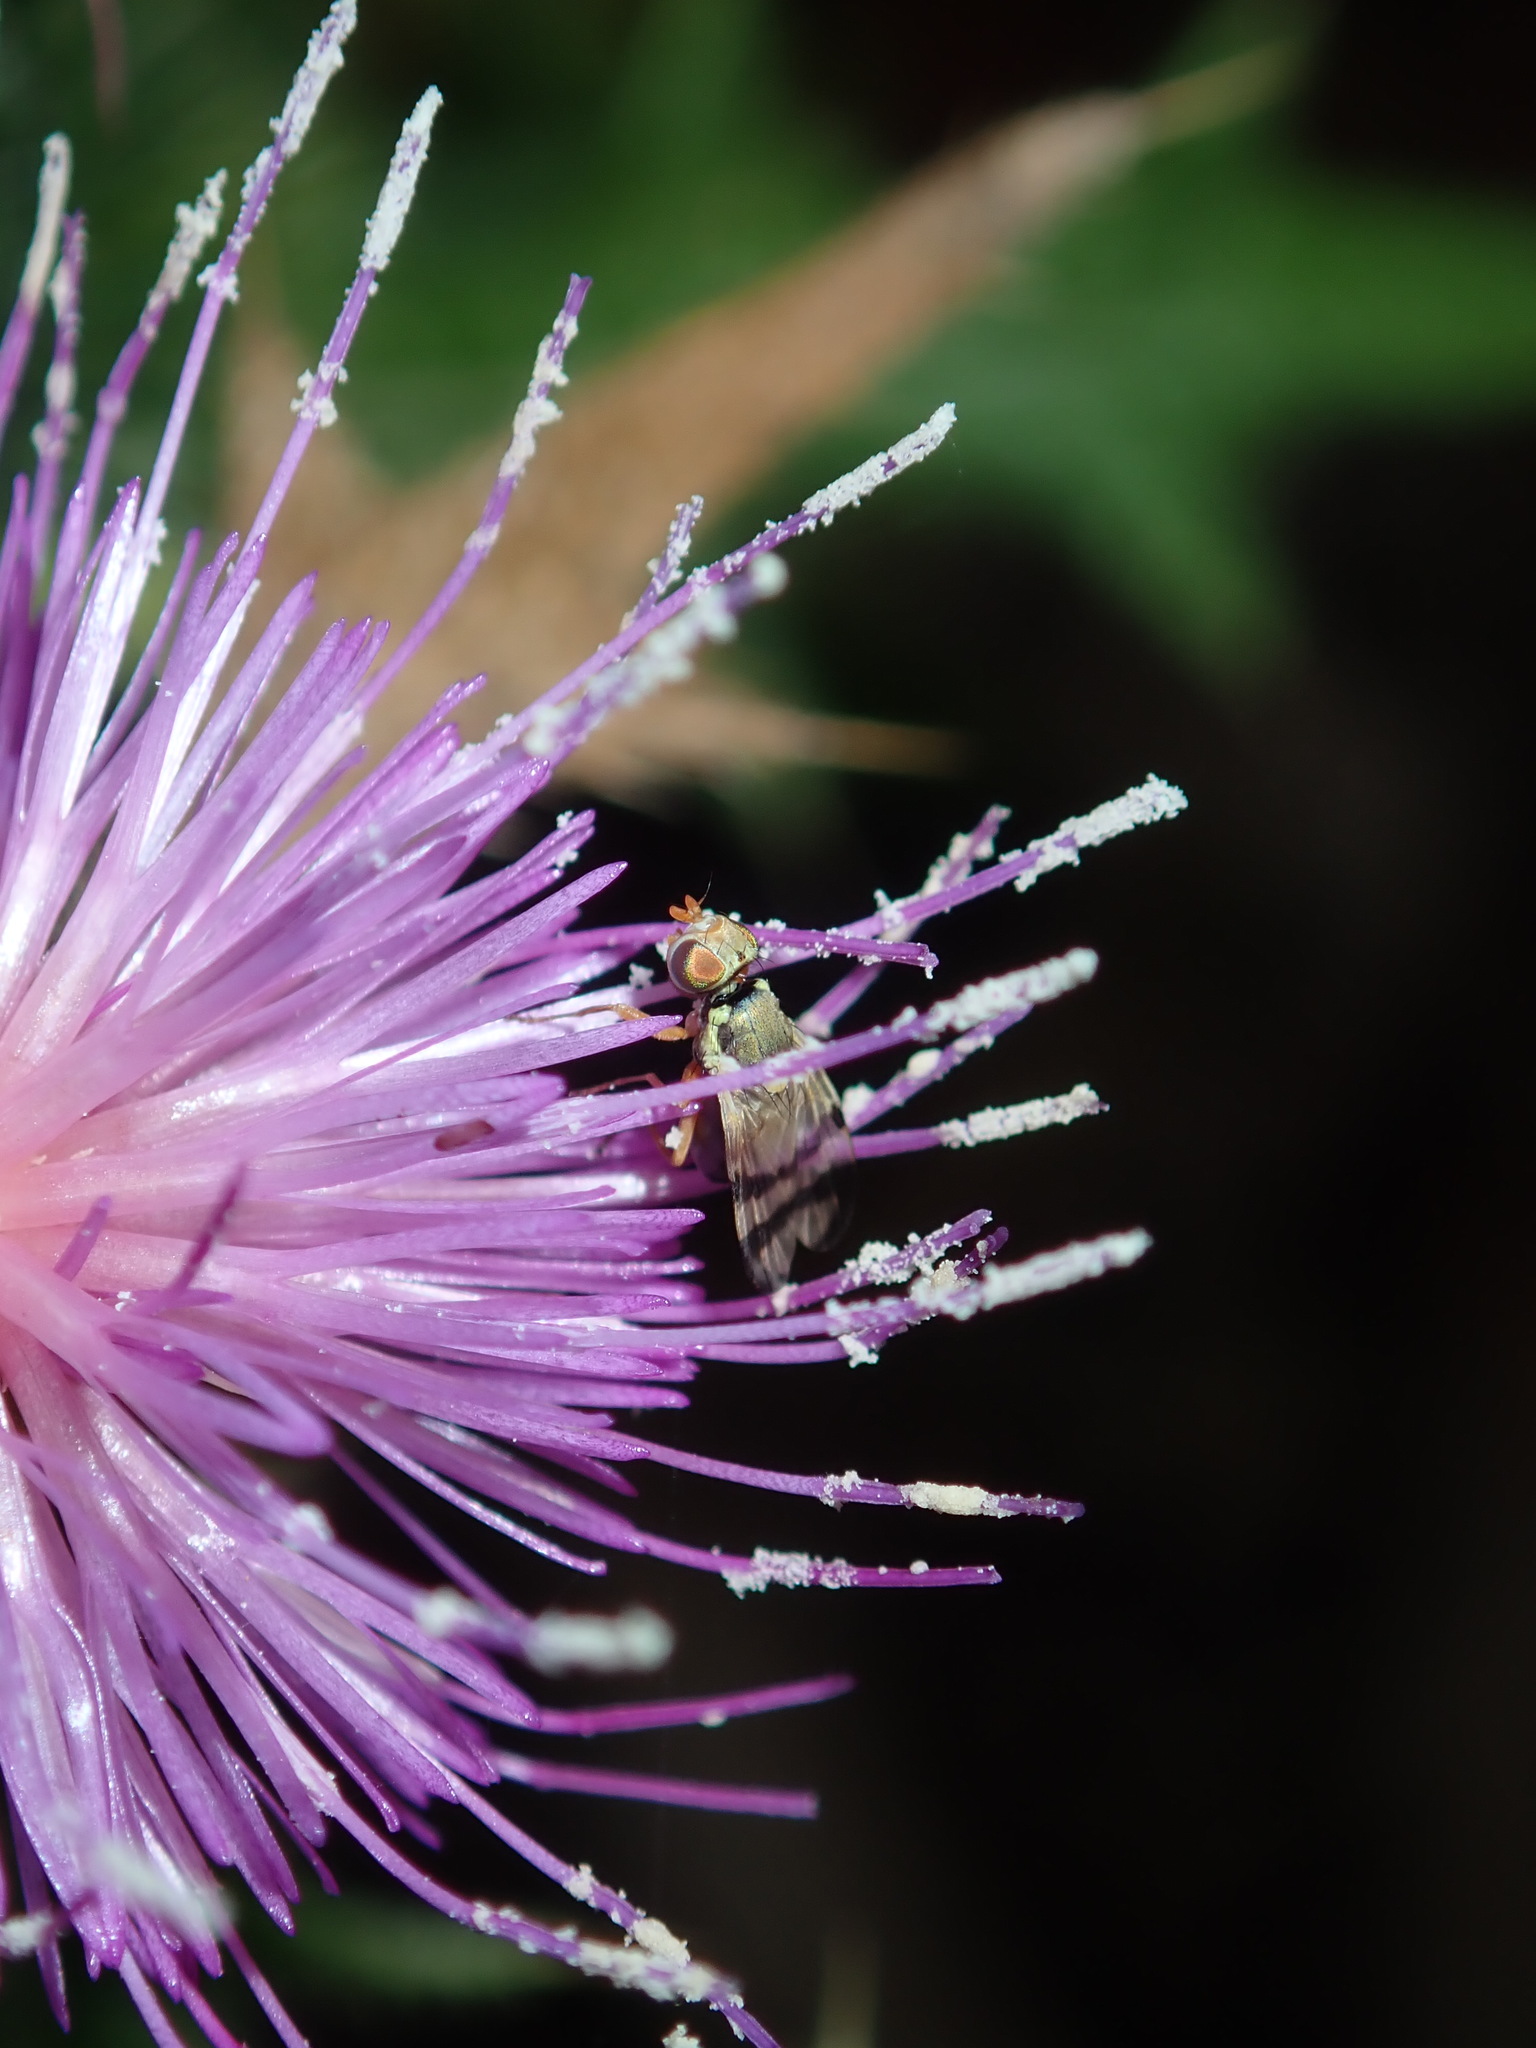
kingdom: Animalia
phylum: Arthropoda
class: Insecta
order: Diptera
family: Tephritidae
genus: Urophora
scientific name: Urophora stylata
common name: Fruit fly
